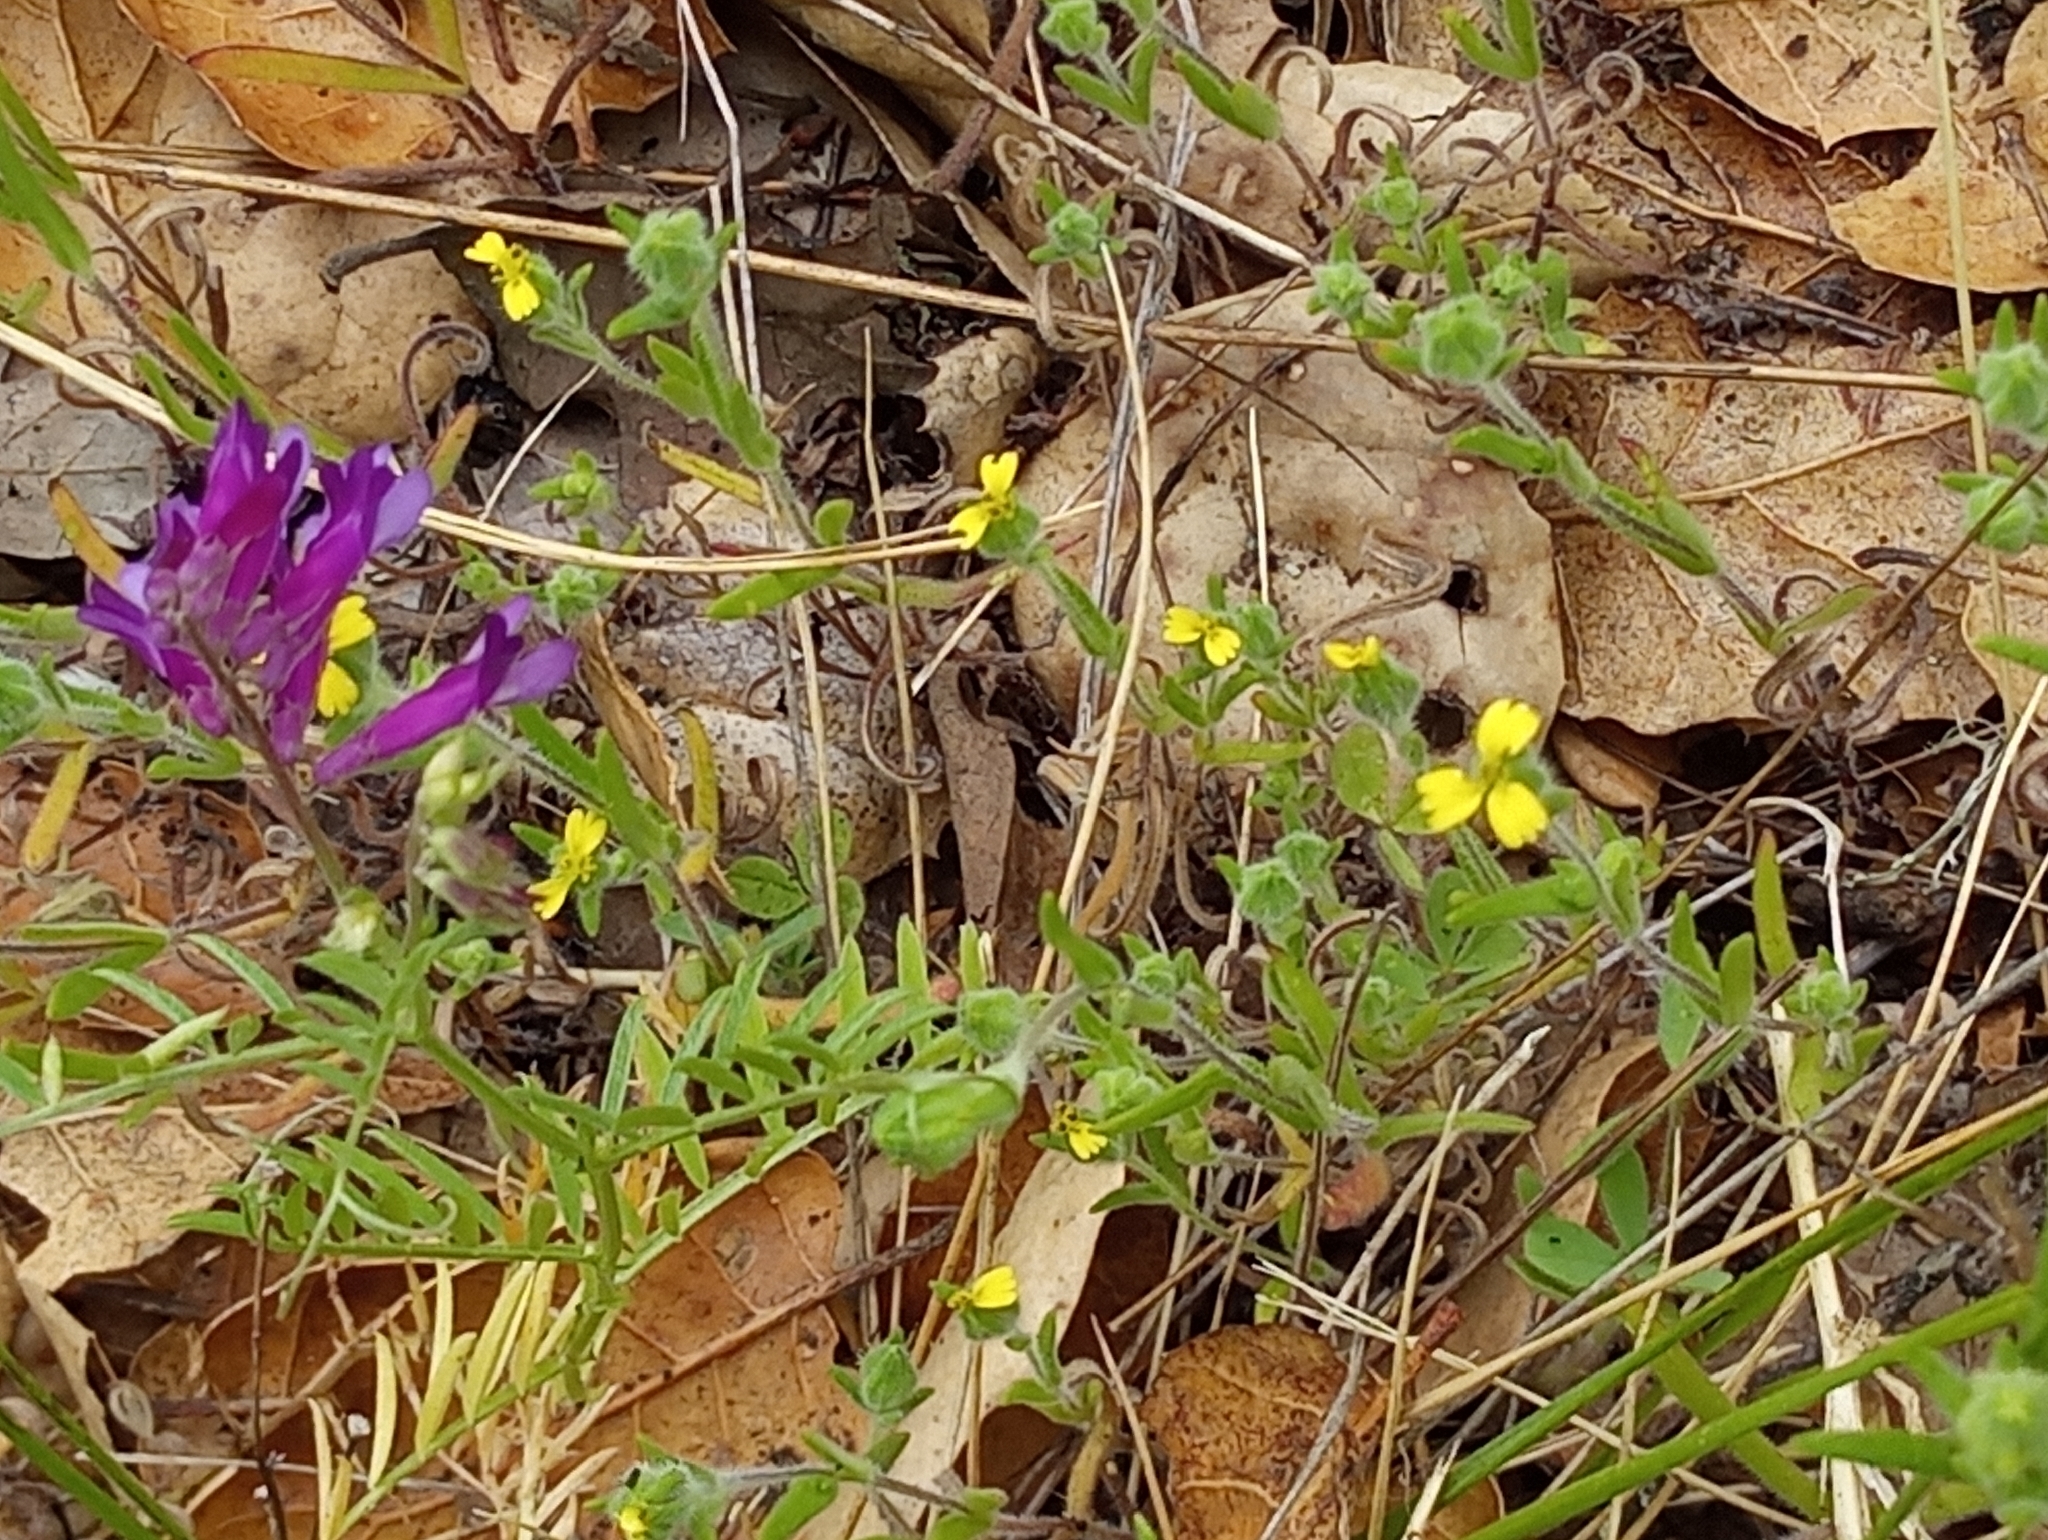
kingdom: Plantae
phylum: Tracheophyta
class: Magnoliopsida
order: Asterales
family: Asteraceae
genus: Madia
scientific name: Madia gracilis
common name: Grassy tarweed
